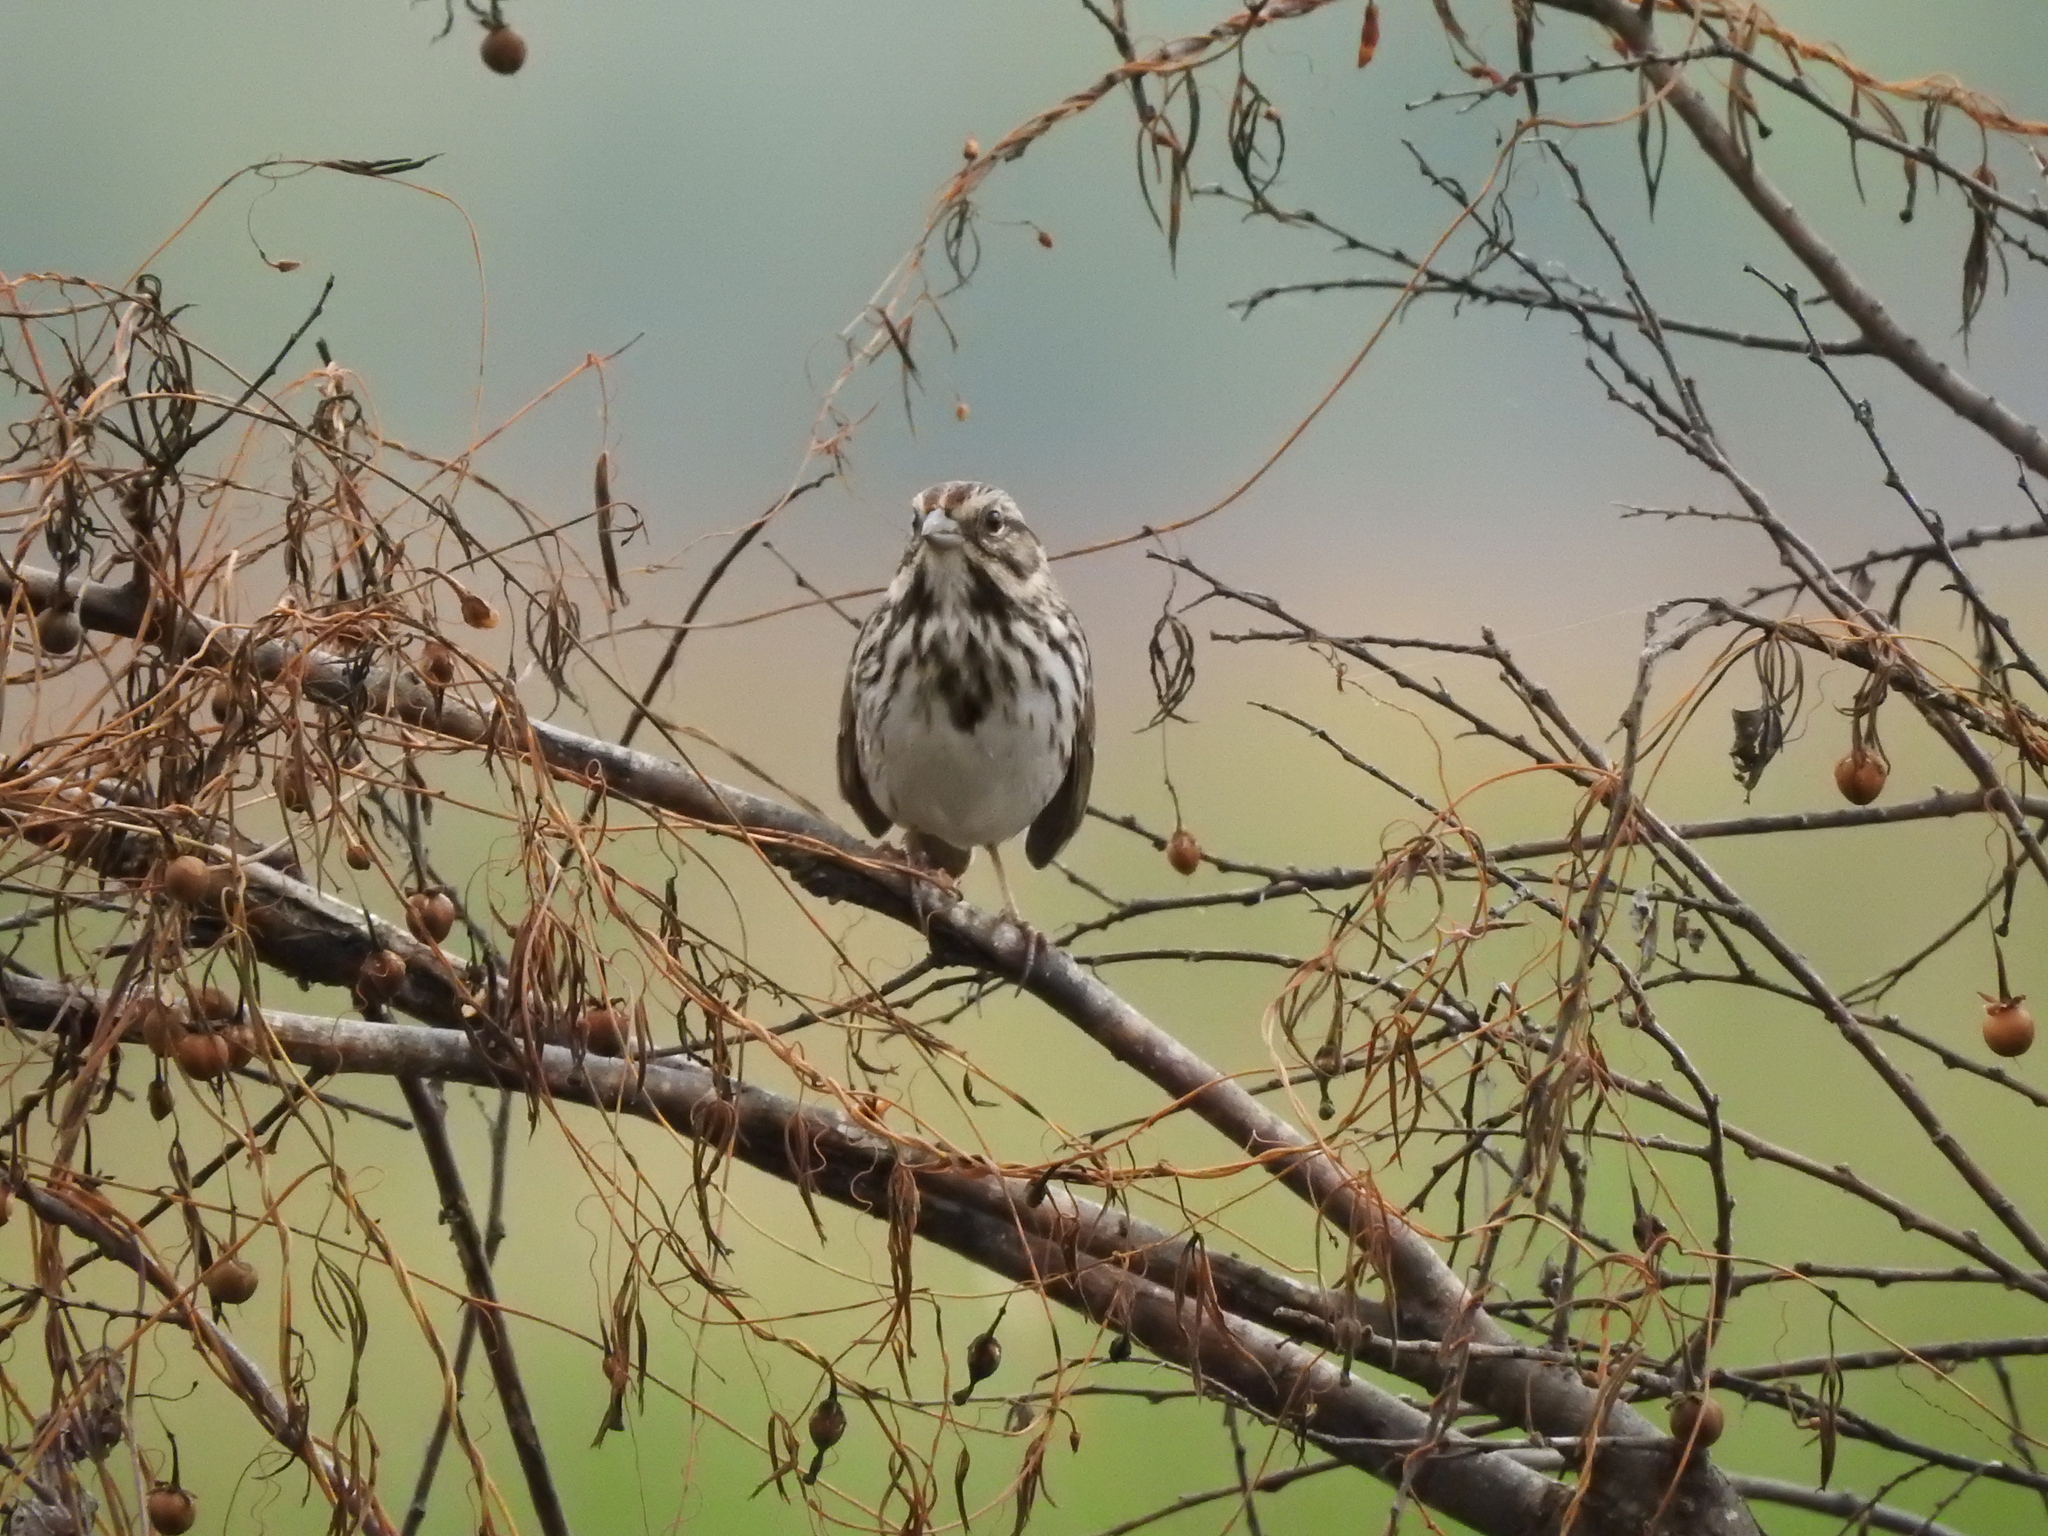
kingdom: Animalia
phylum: Chordata
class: Aves
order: Passeriformes
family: Passerellidae
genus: Melospiza
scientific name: Melospiza melodia
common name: Song sparrow
